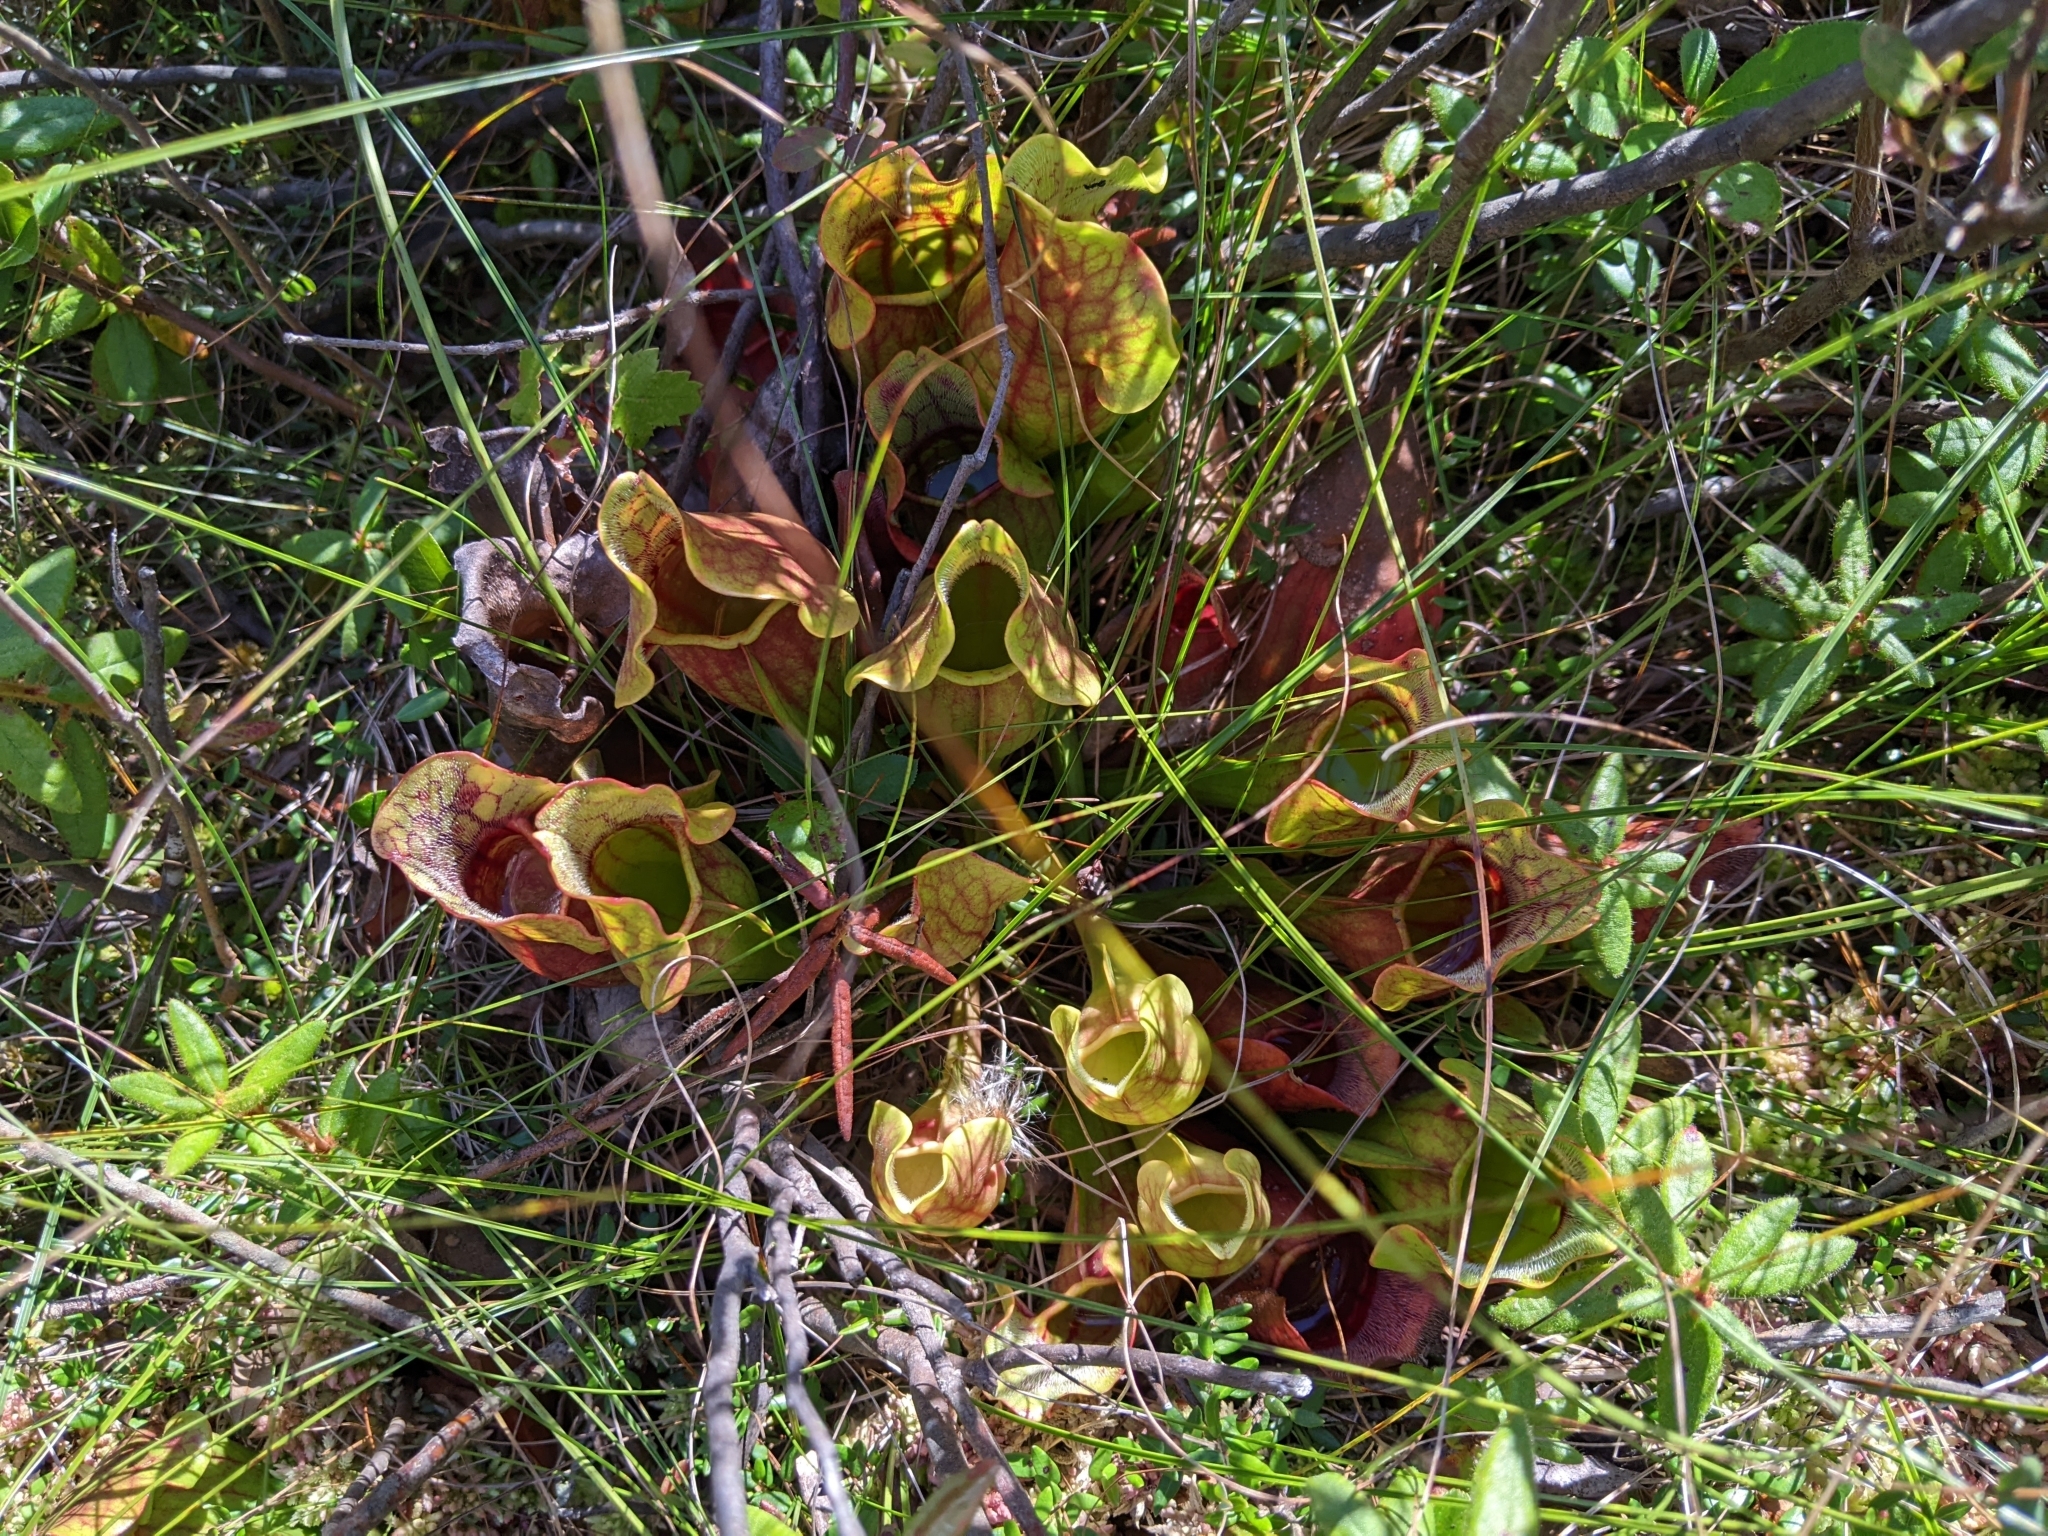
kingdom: Plantae
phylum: Tracheophyta
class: Magnoliopsida
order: Ericales
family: Sarraceniaceae
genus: Sarracenia
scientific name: Sarracenia purpurea
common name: Pitcherplant
